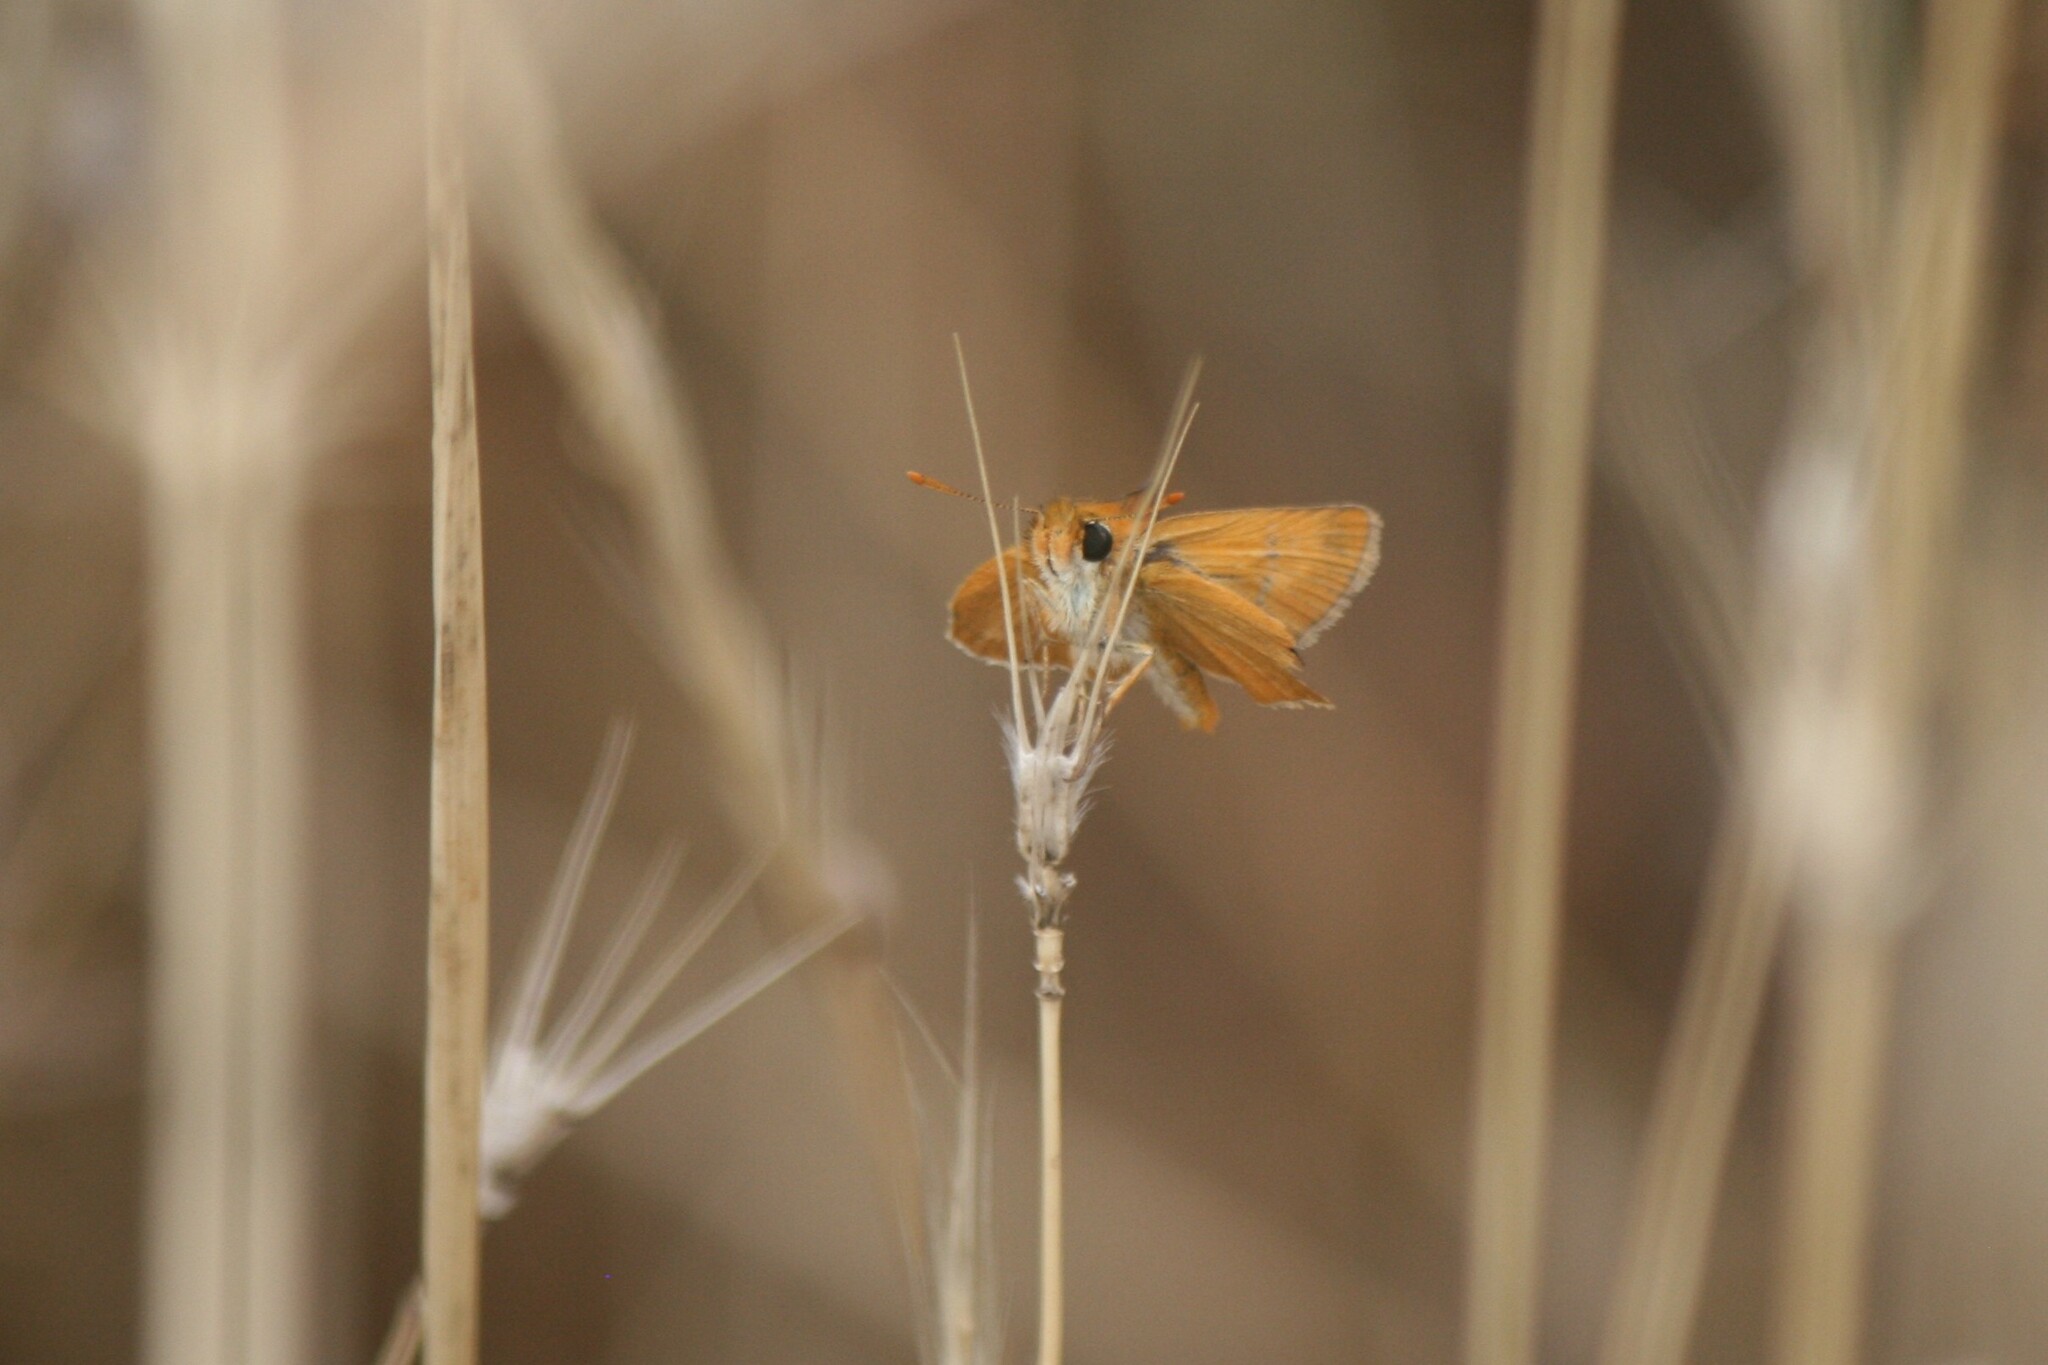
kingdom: Animalia
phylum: Arthropoda
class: Insecta
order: Lepidoptera
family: Hesperiidae
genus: Thymelicus
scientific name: Thymelicus acteon
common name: Lulworth skipper
